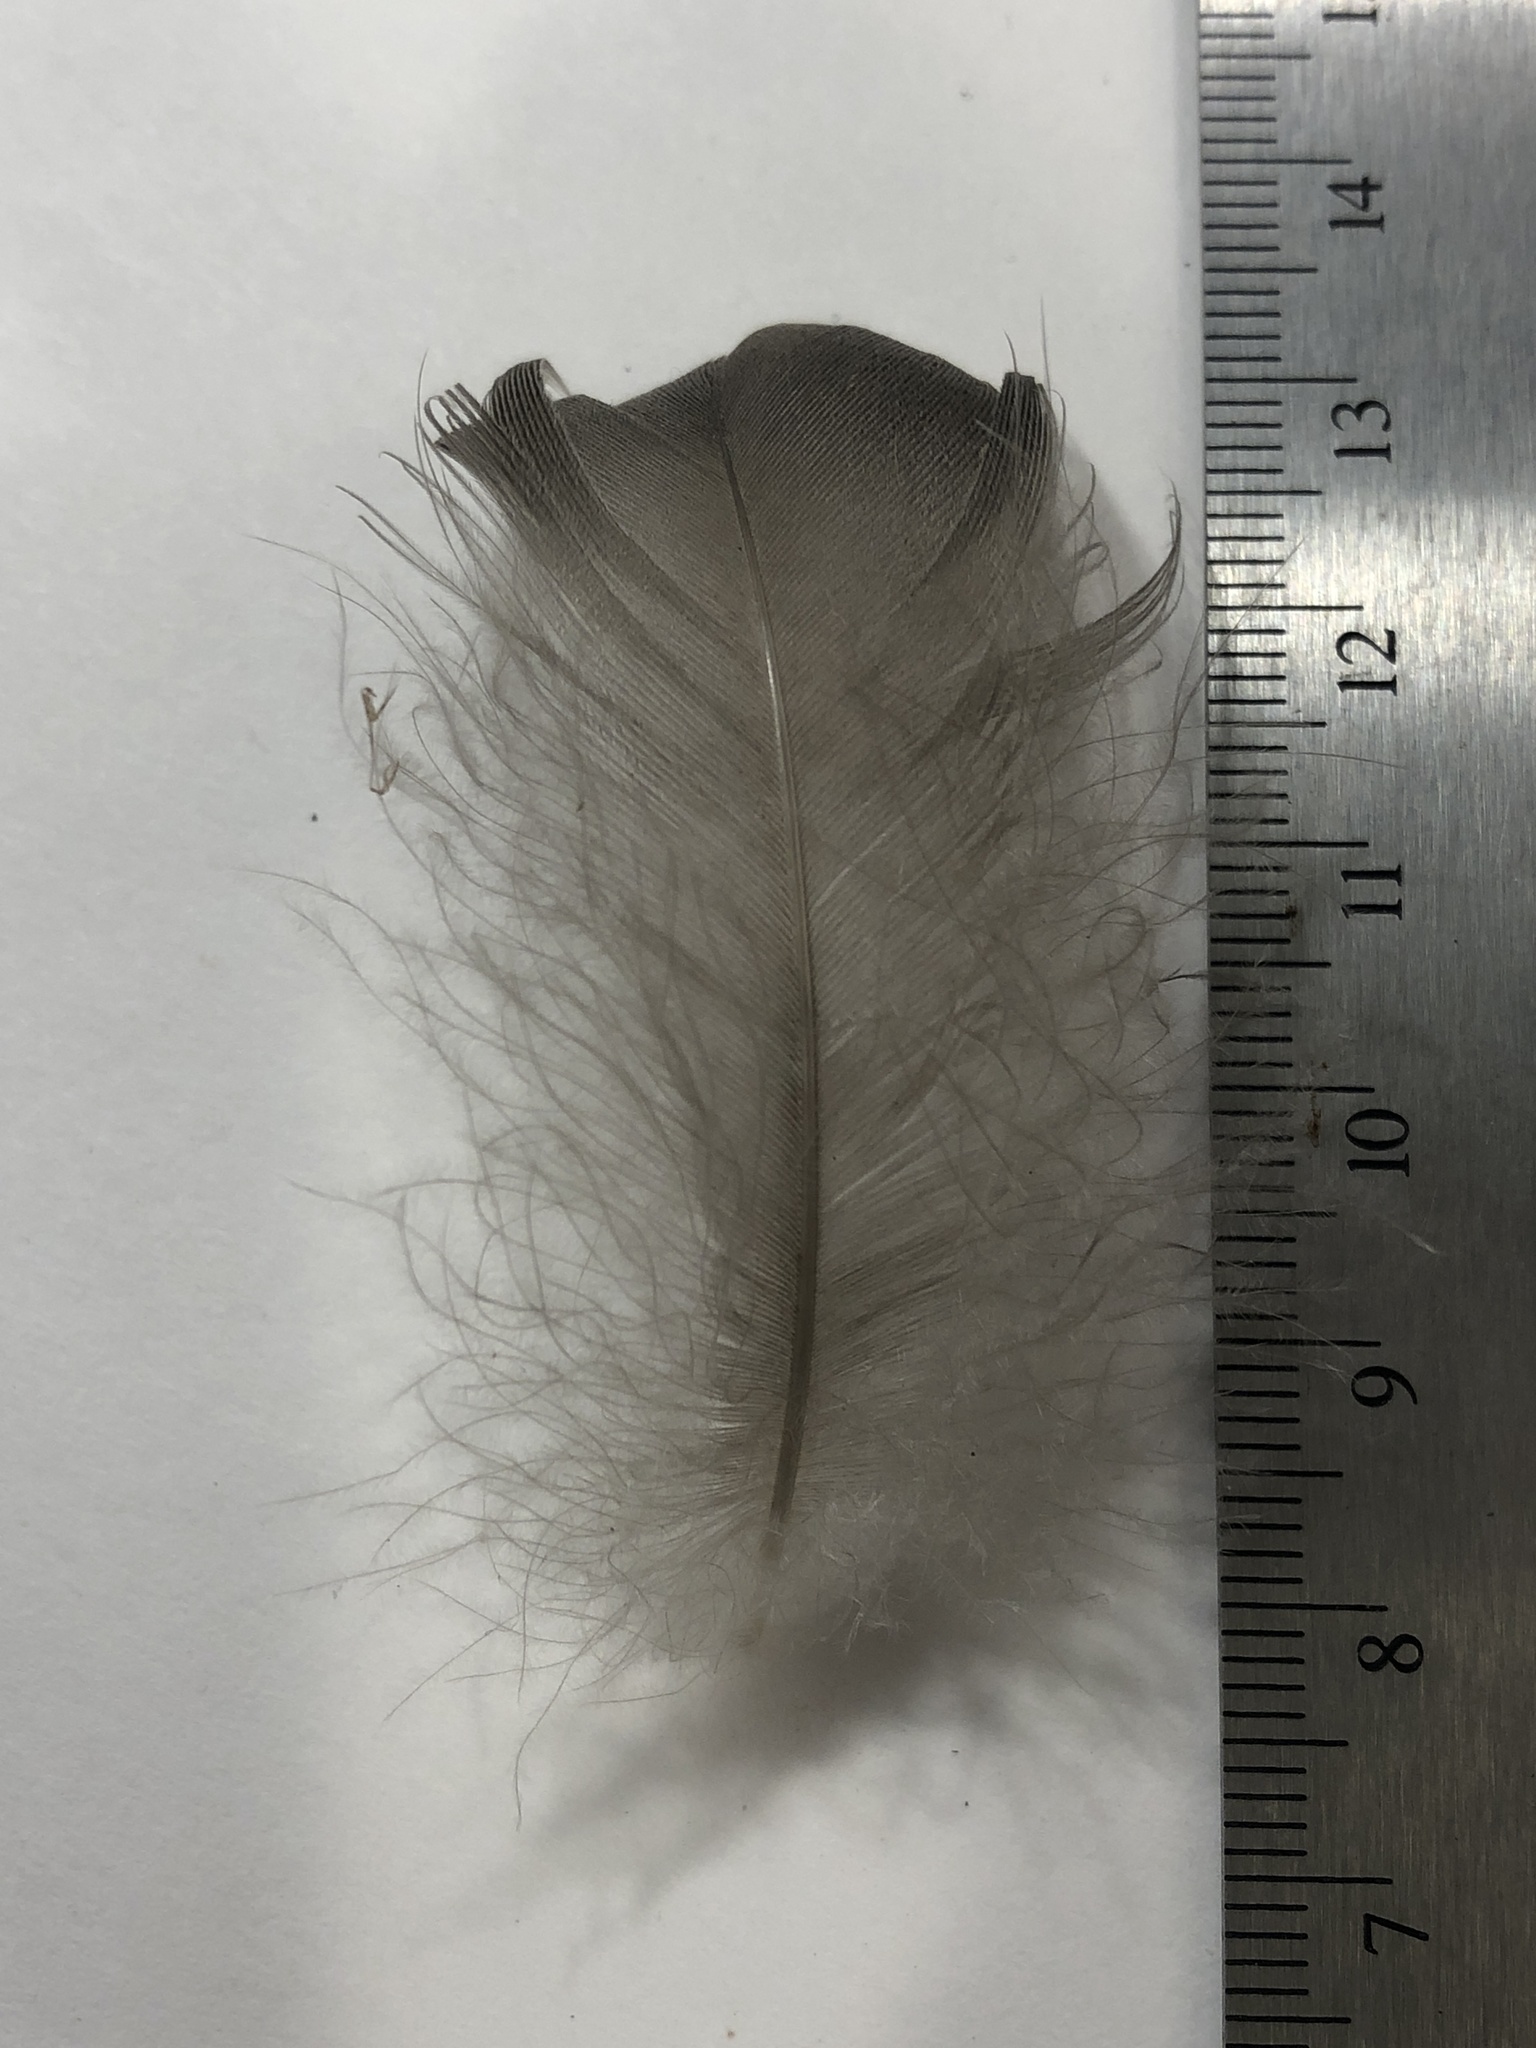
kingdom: Animalia
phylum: Chordata
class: Aves
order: Anseriformes
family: Anatidae
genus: Branta
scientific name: Branta canadensis
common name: Canada goose
